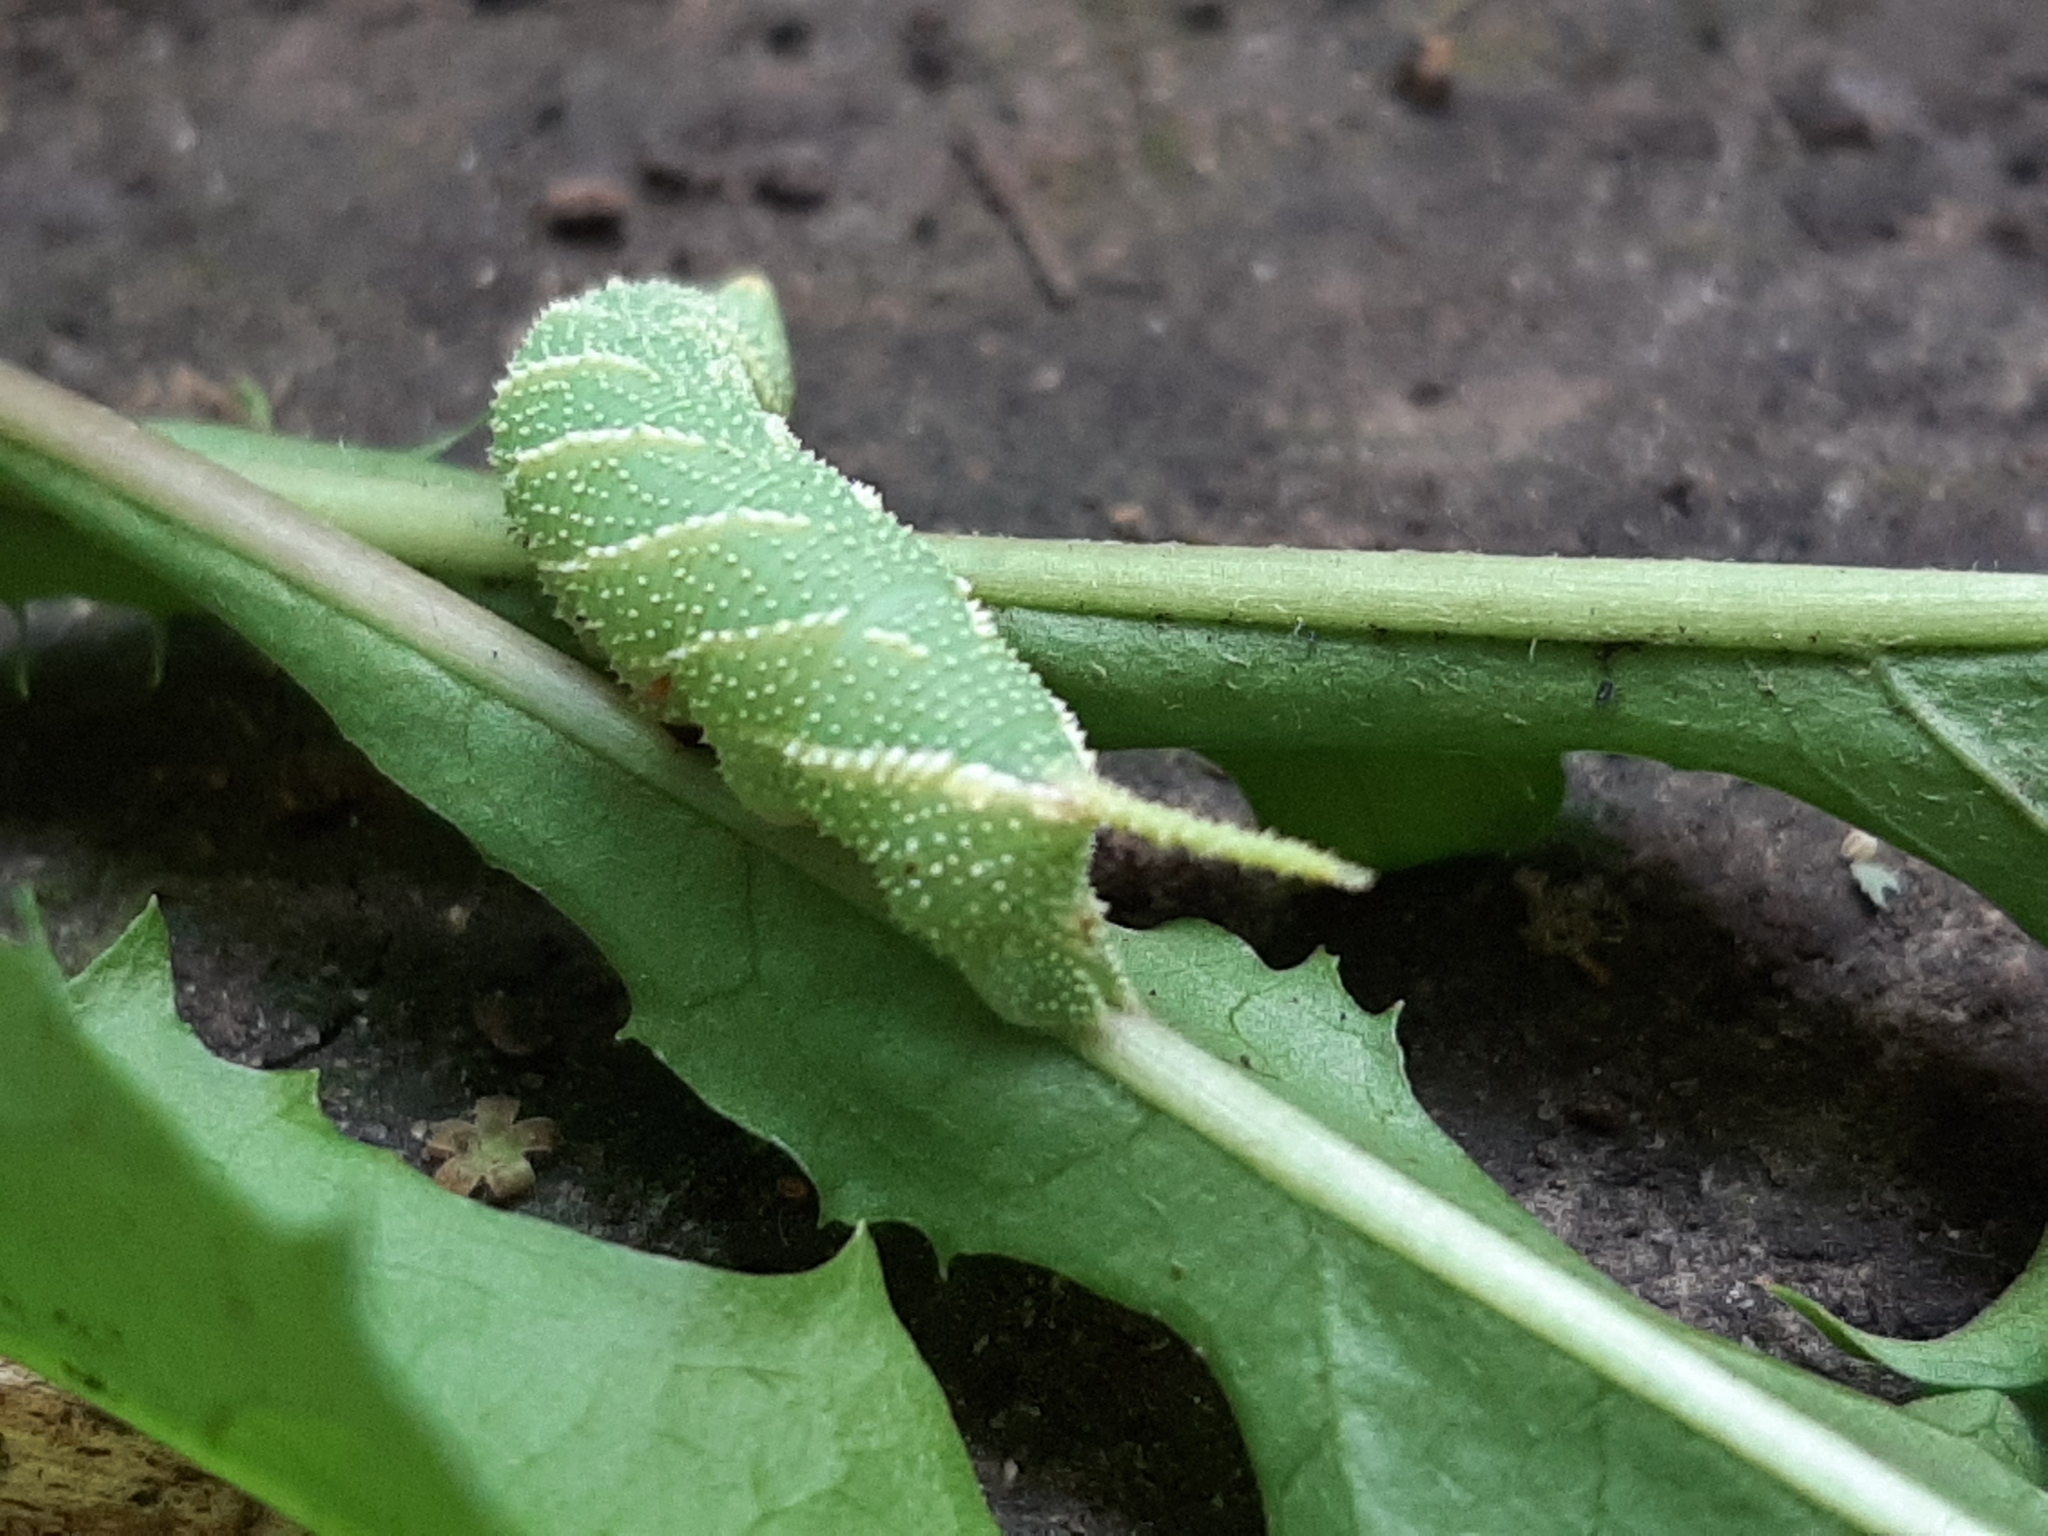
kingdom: Animalia
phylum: Arthropoda
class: Insecta
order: Lepidoptera
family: Sphingidae
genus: Amorpha
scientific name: Amorpha juglandis
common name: Walnut sphinx
